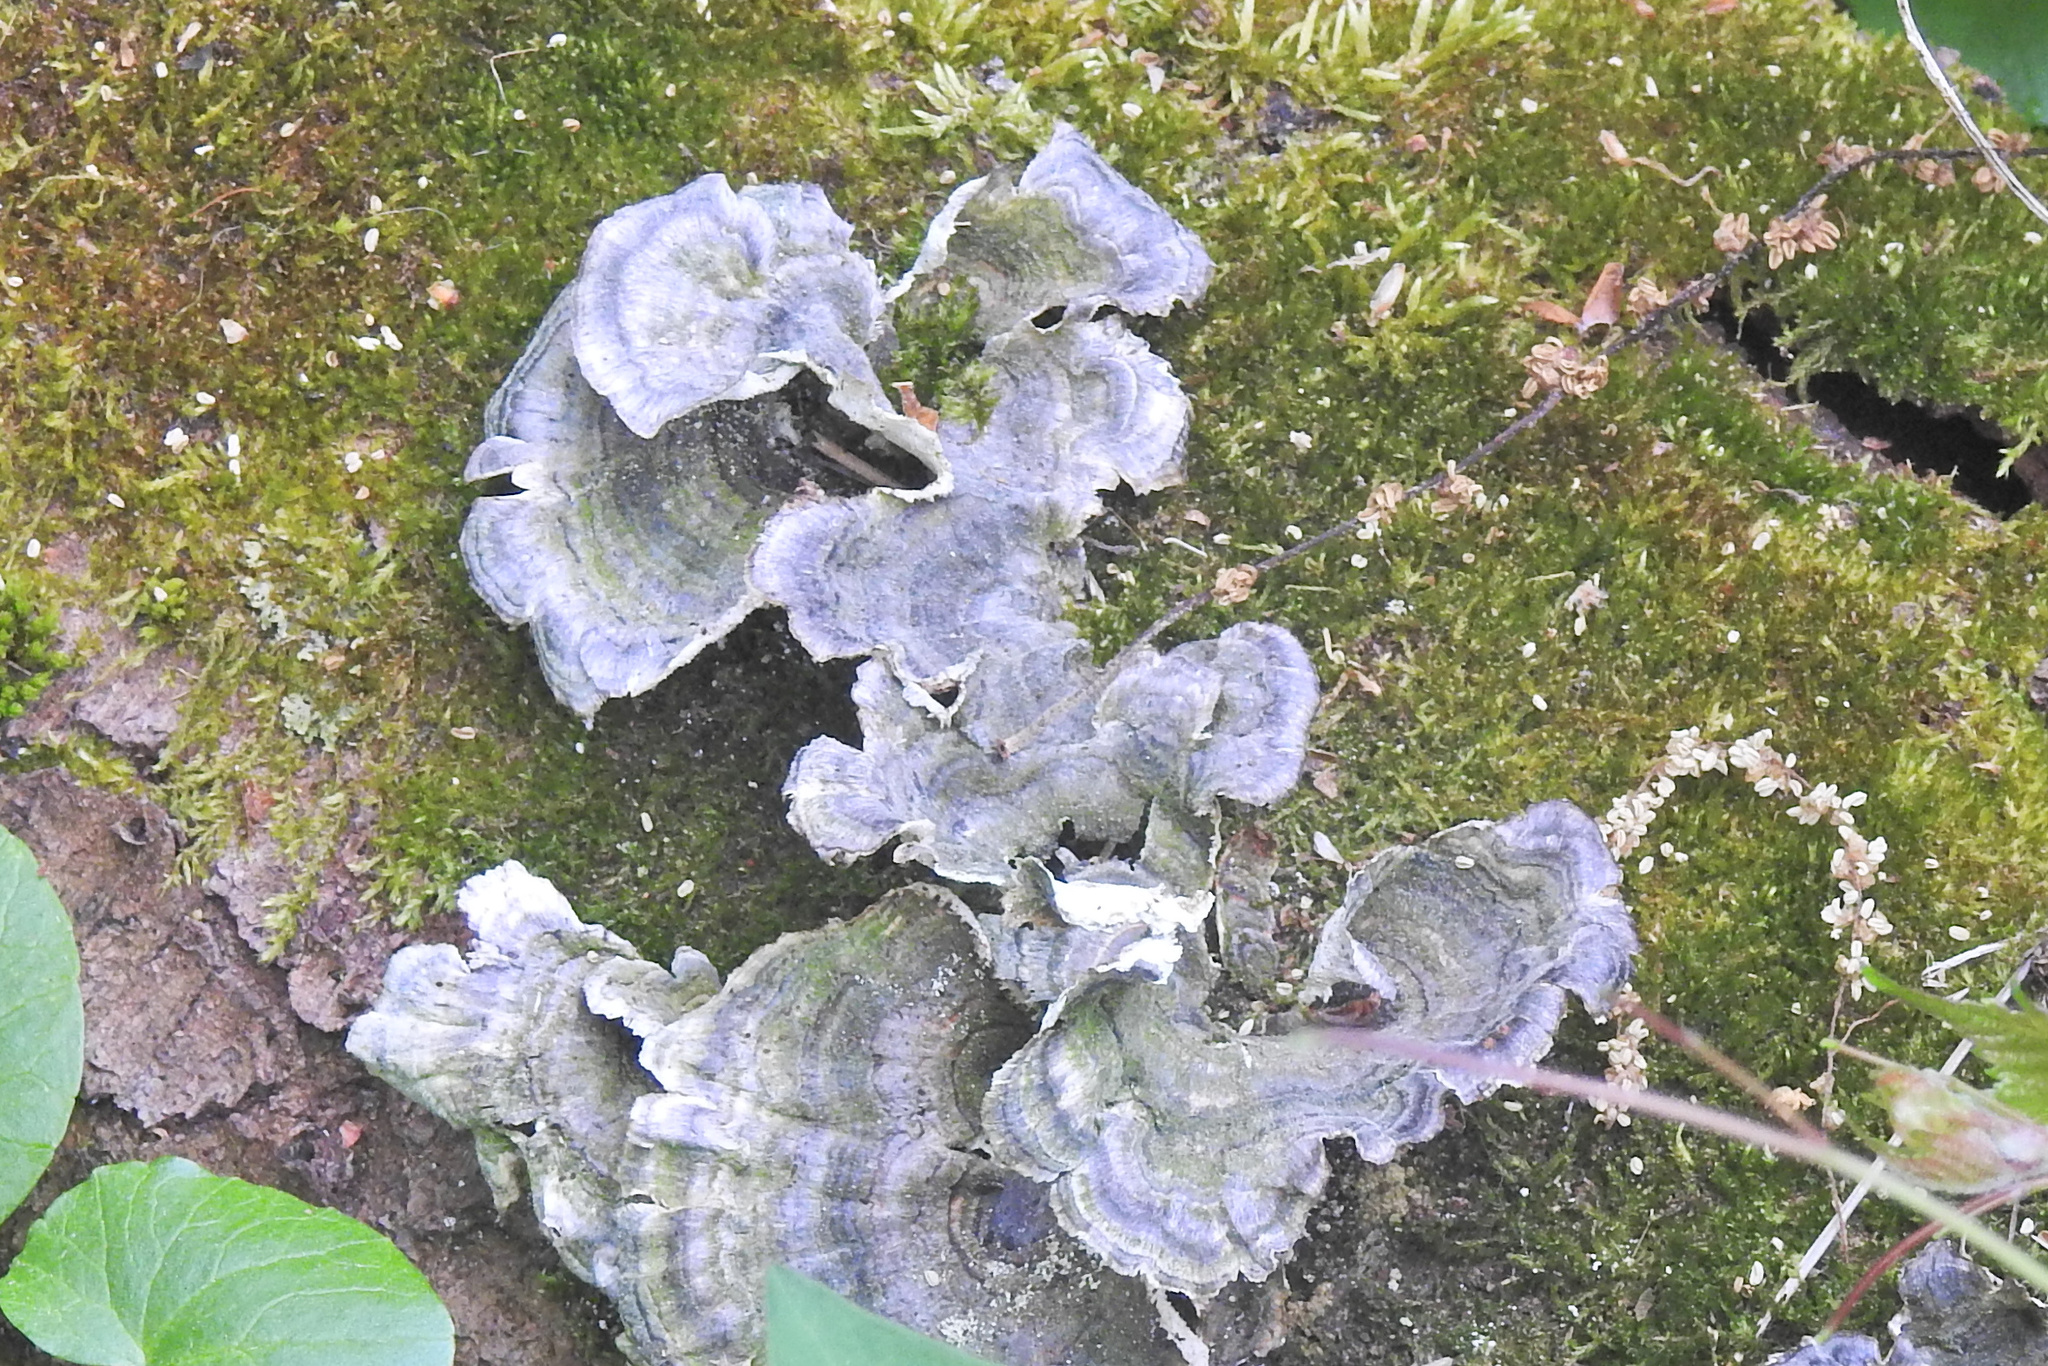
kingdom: Fungi
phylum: Basidiomycota
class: Agaricomycetes
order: Polyporales
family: Polyporaceae
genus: Trametes
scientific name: Trametes versicolor
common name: Turkeytail
